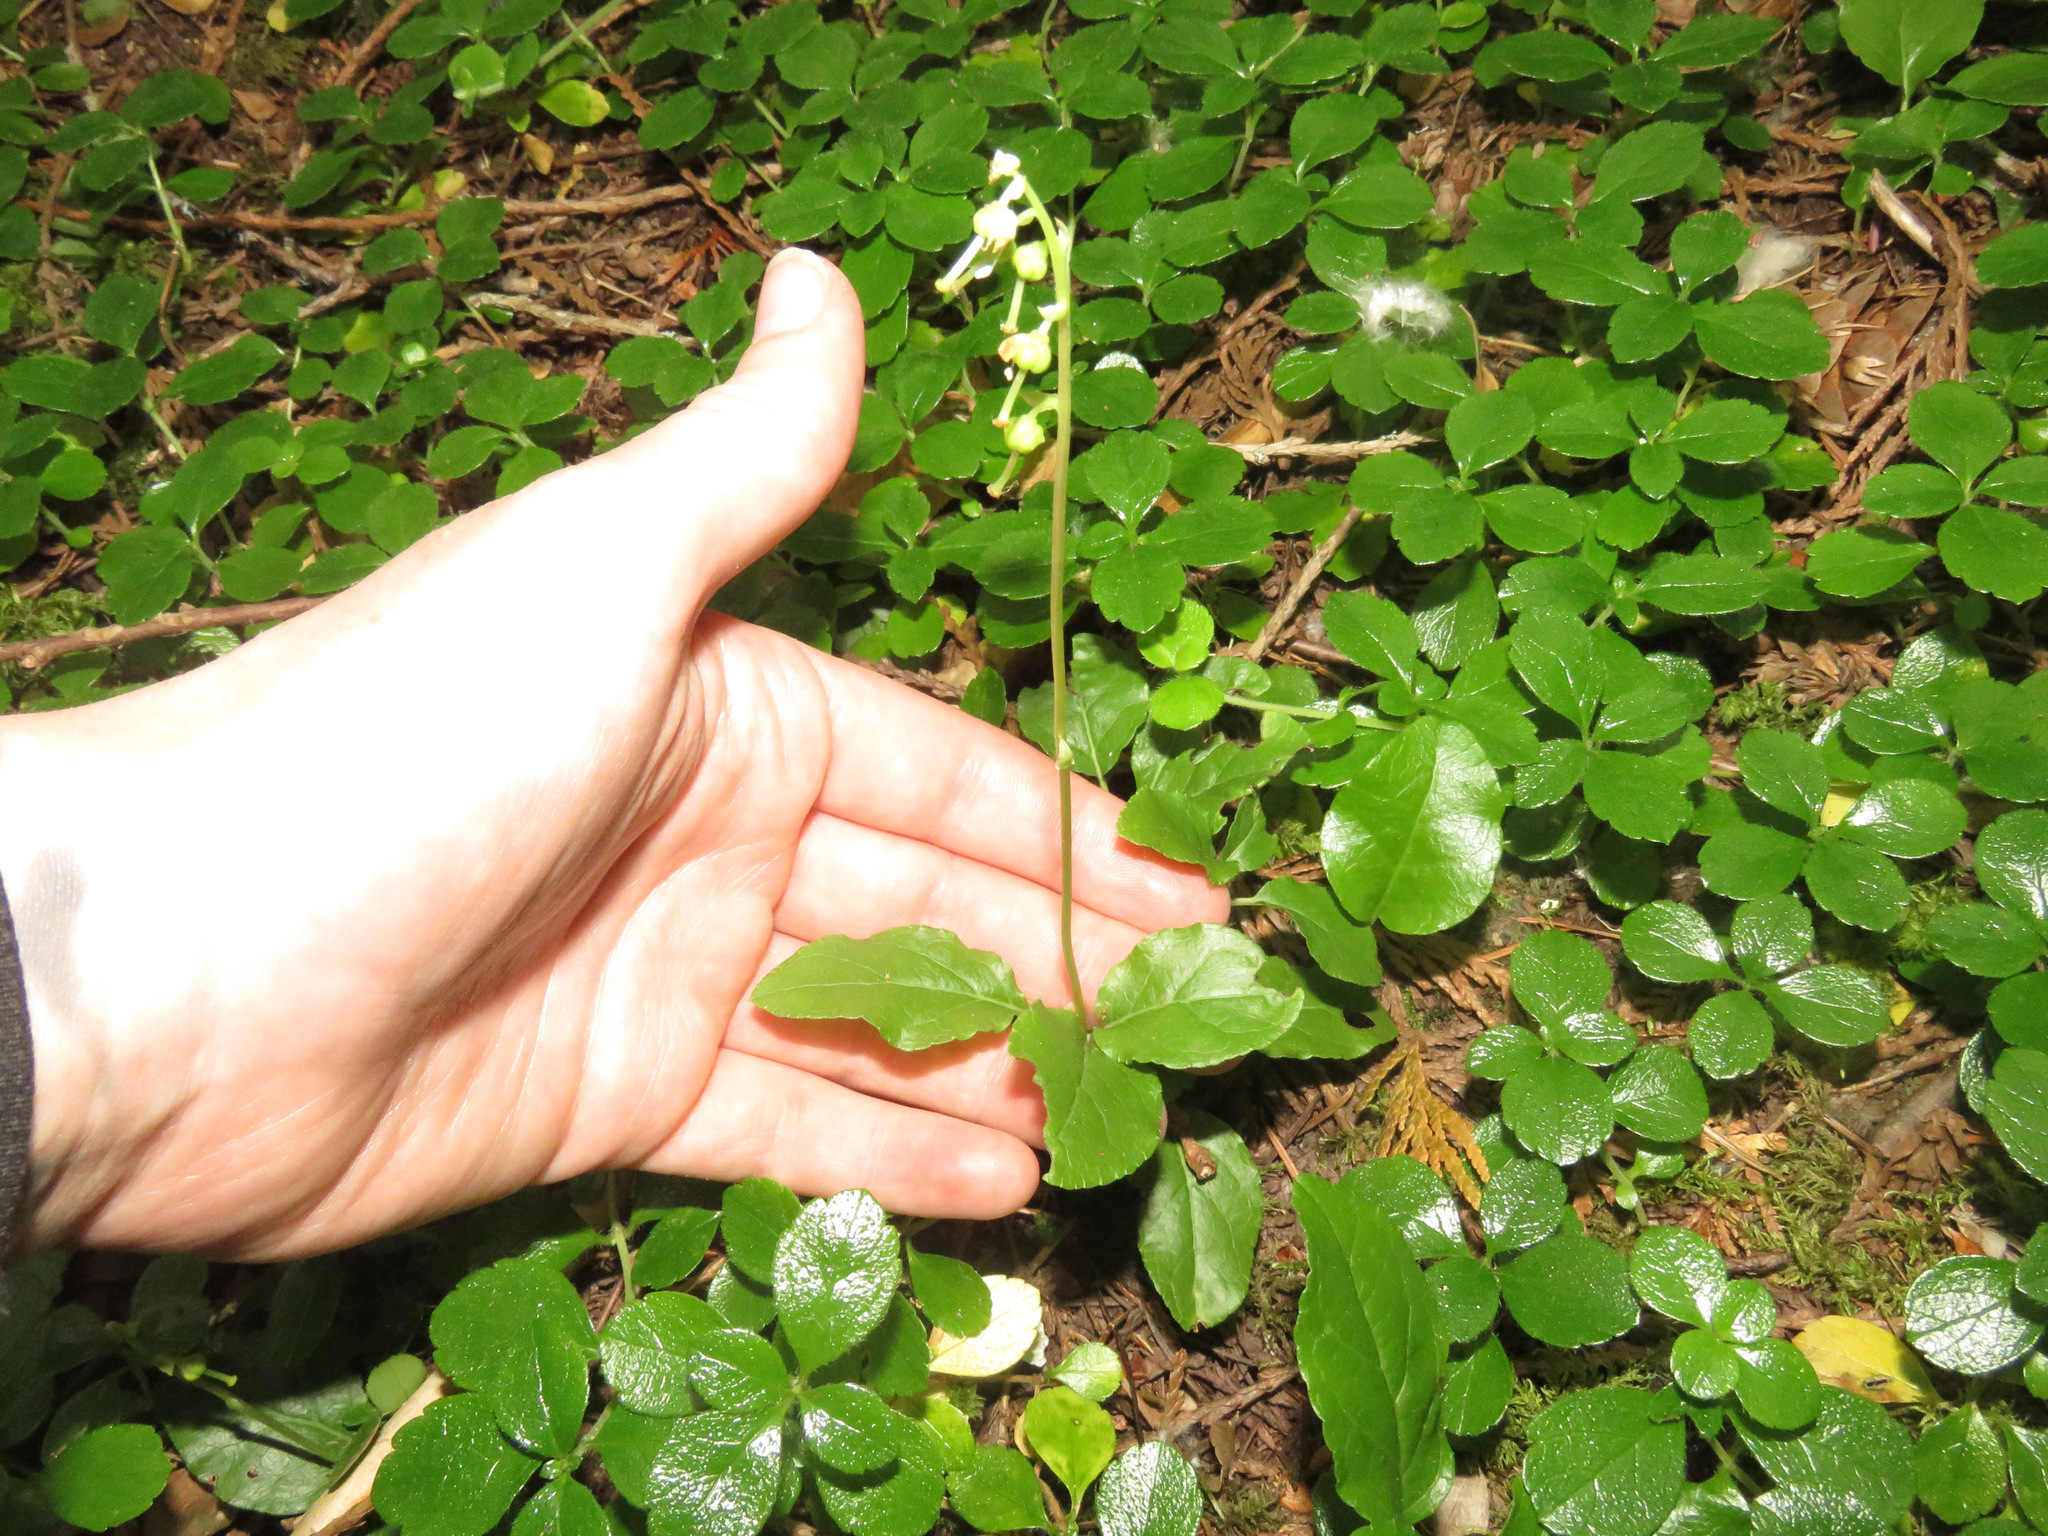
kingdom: Plantae
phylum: Tracheophyta
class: Magnoliopsida
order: Ericales
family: Ericaceae
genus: Orthilia
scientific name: Orthilia secunda
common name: One-sided orthilia
